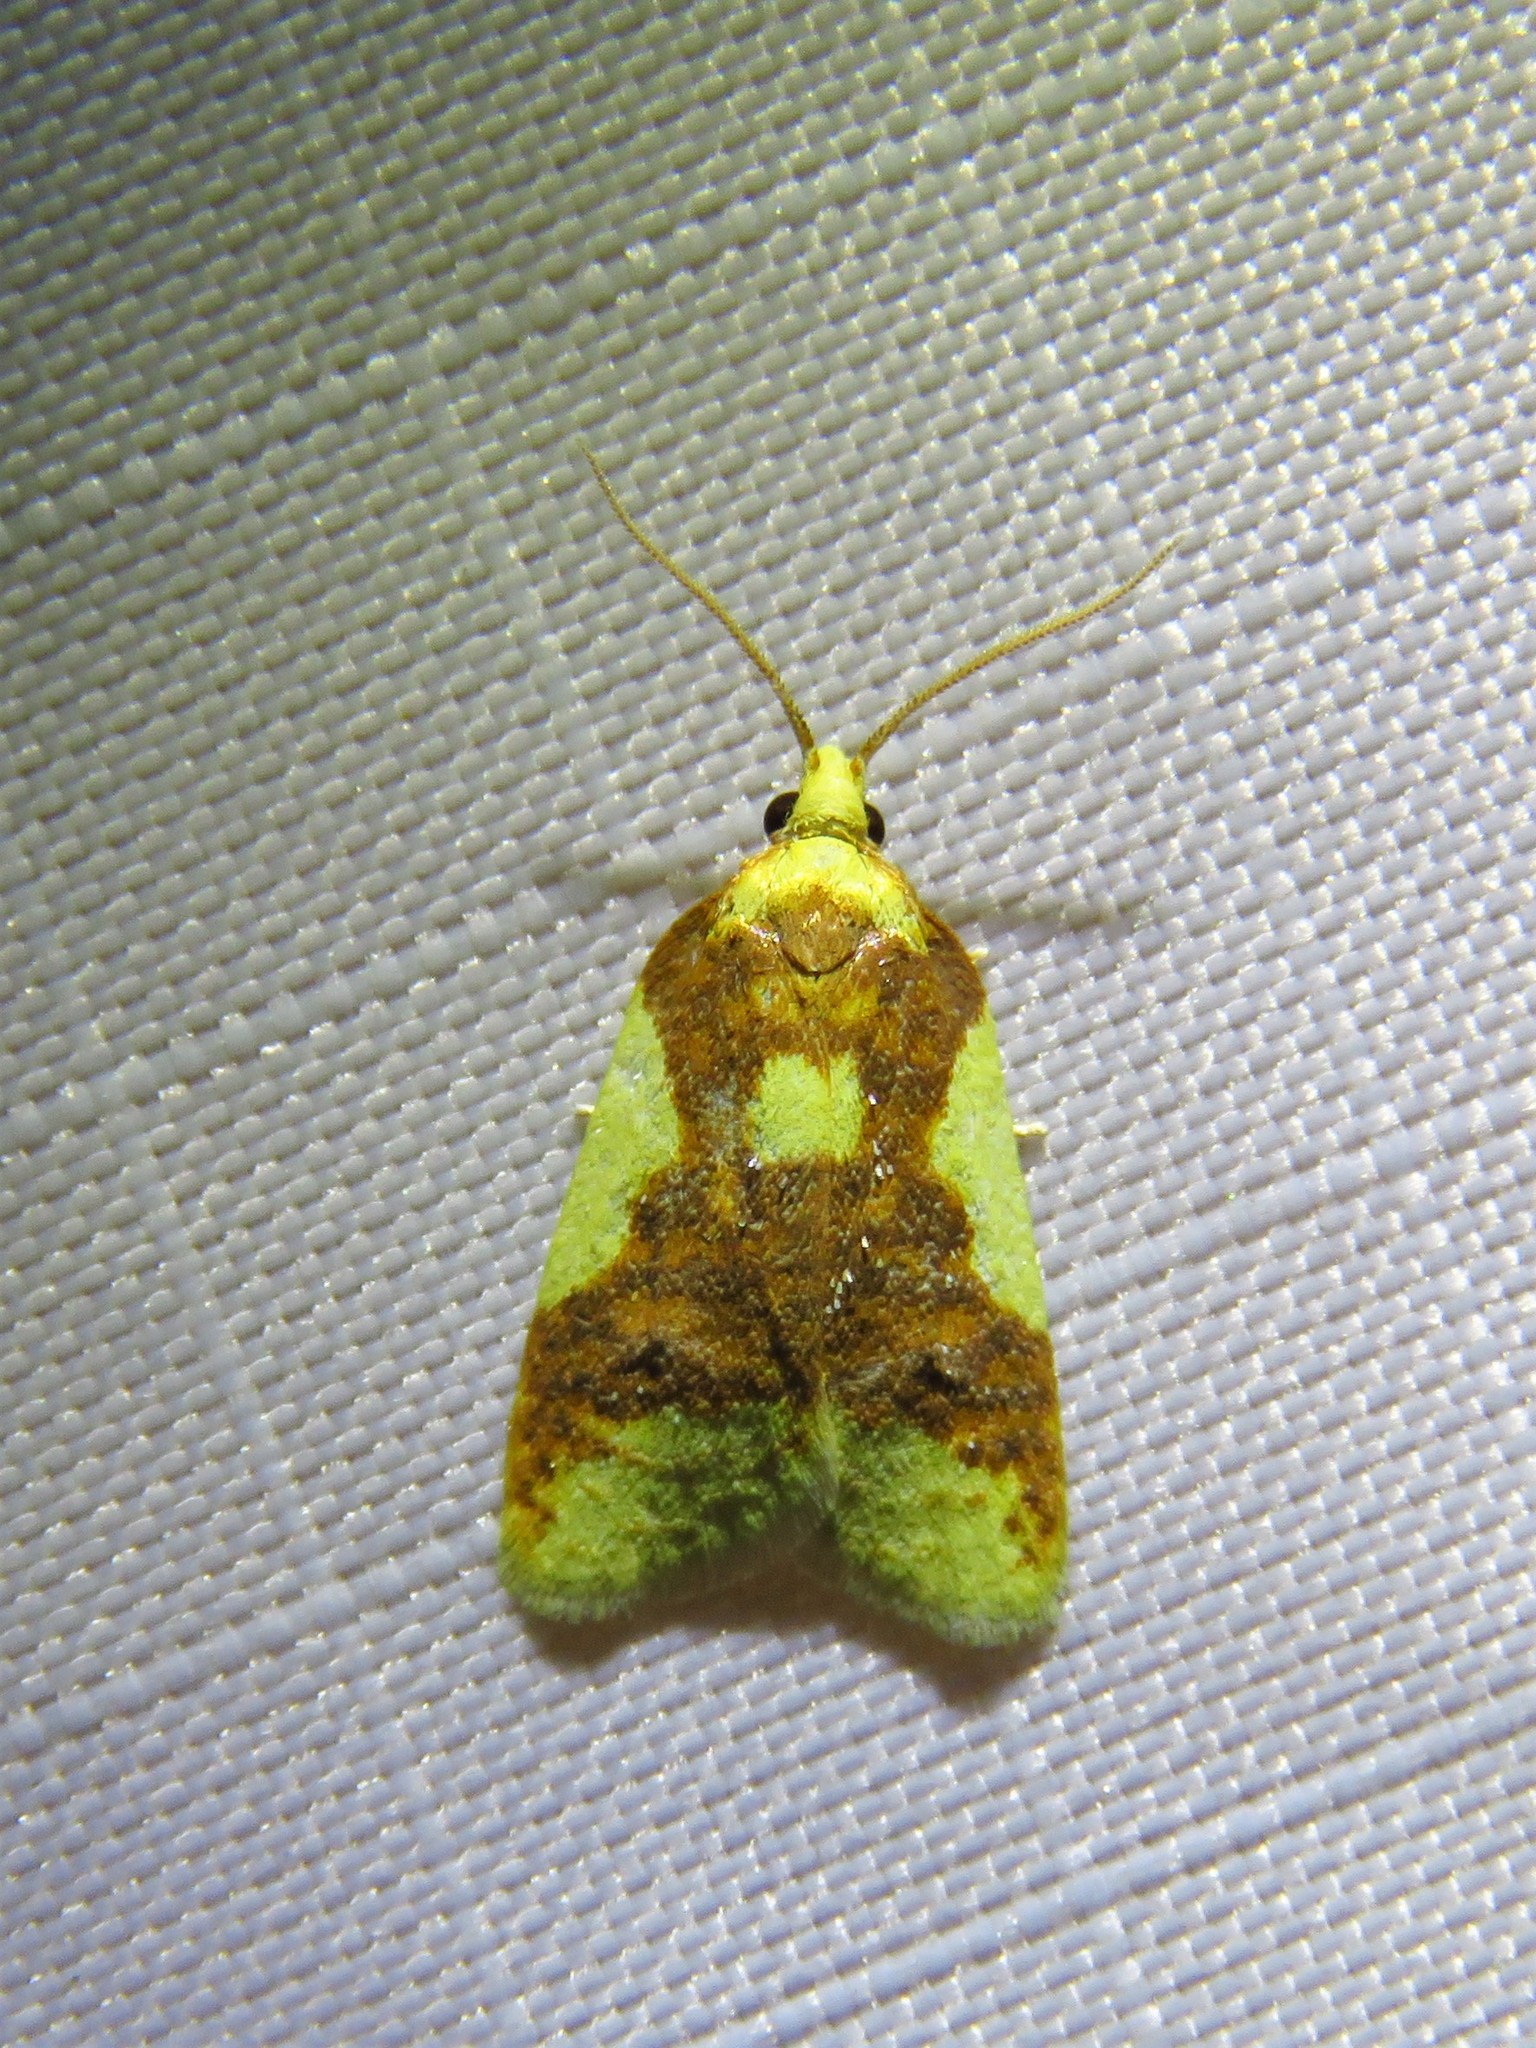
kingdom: Animalia
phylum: Arthropoda
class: Insecta
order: Lepidoptera
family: Tortricidae
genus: Sparganothis
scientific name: Sparganothis pulcherrimana
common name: Beautiful sparganothis
